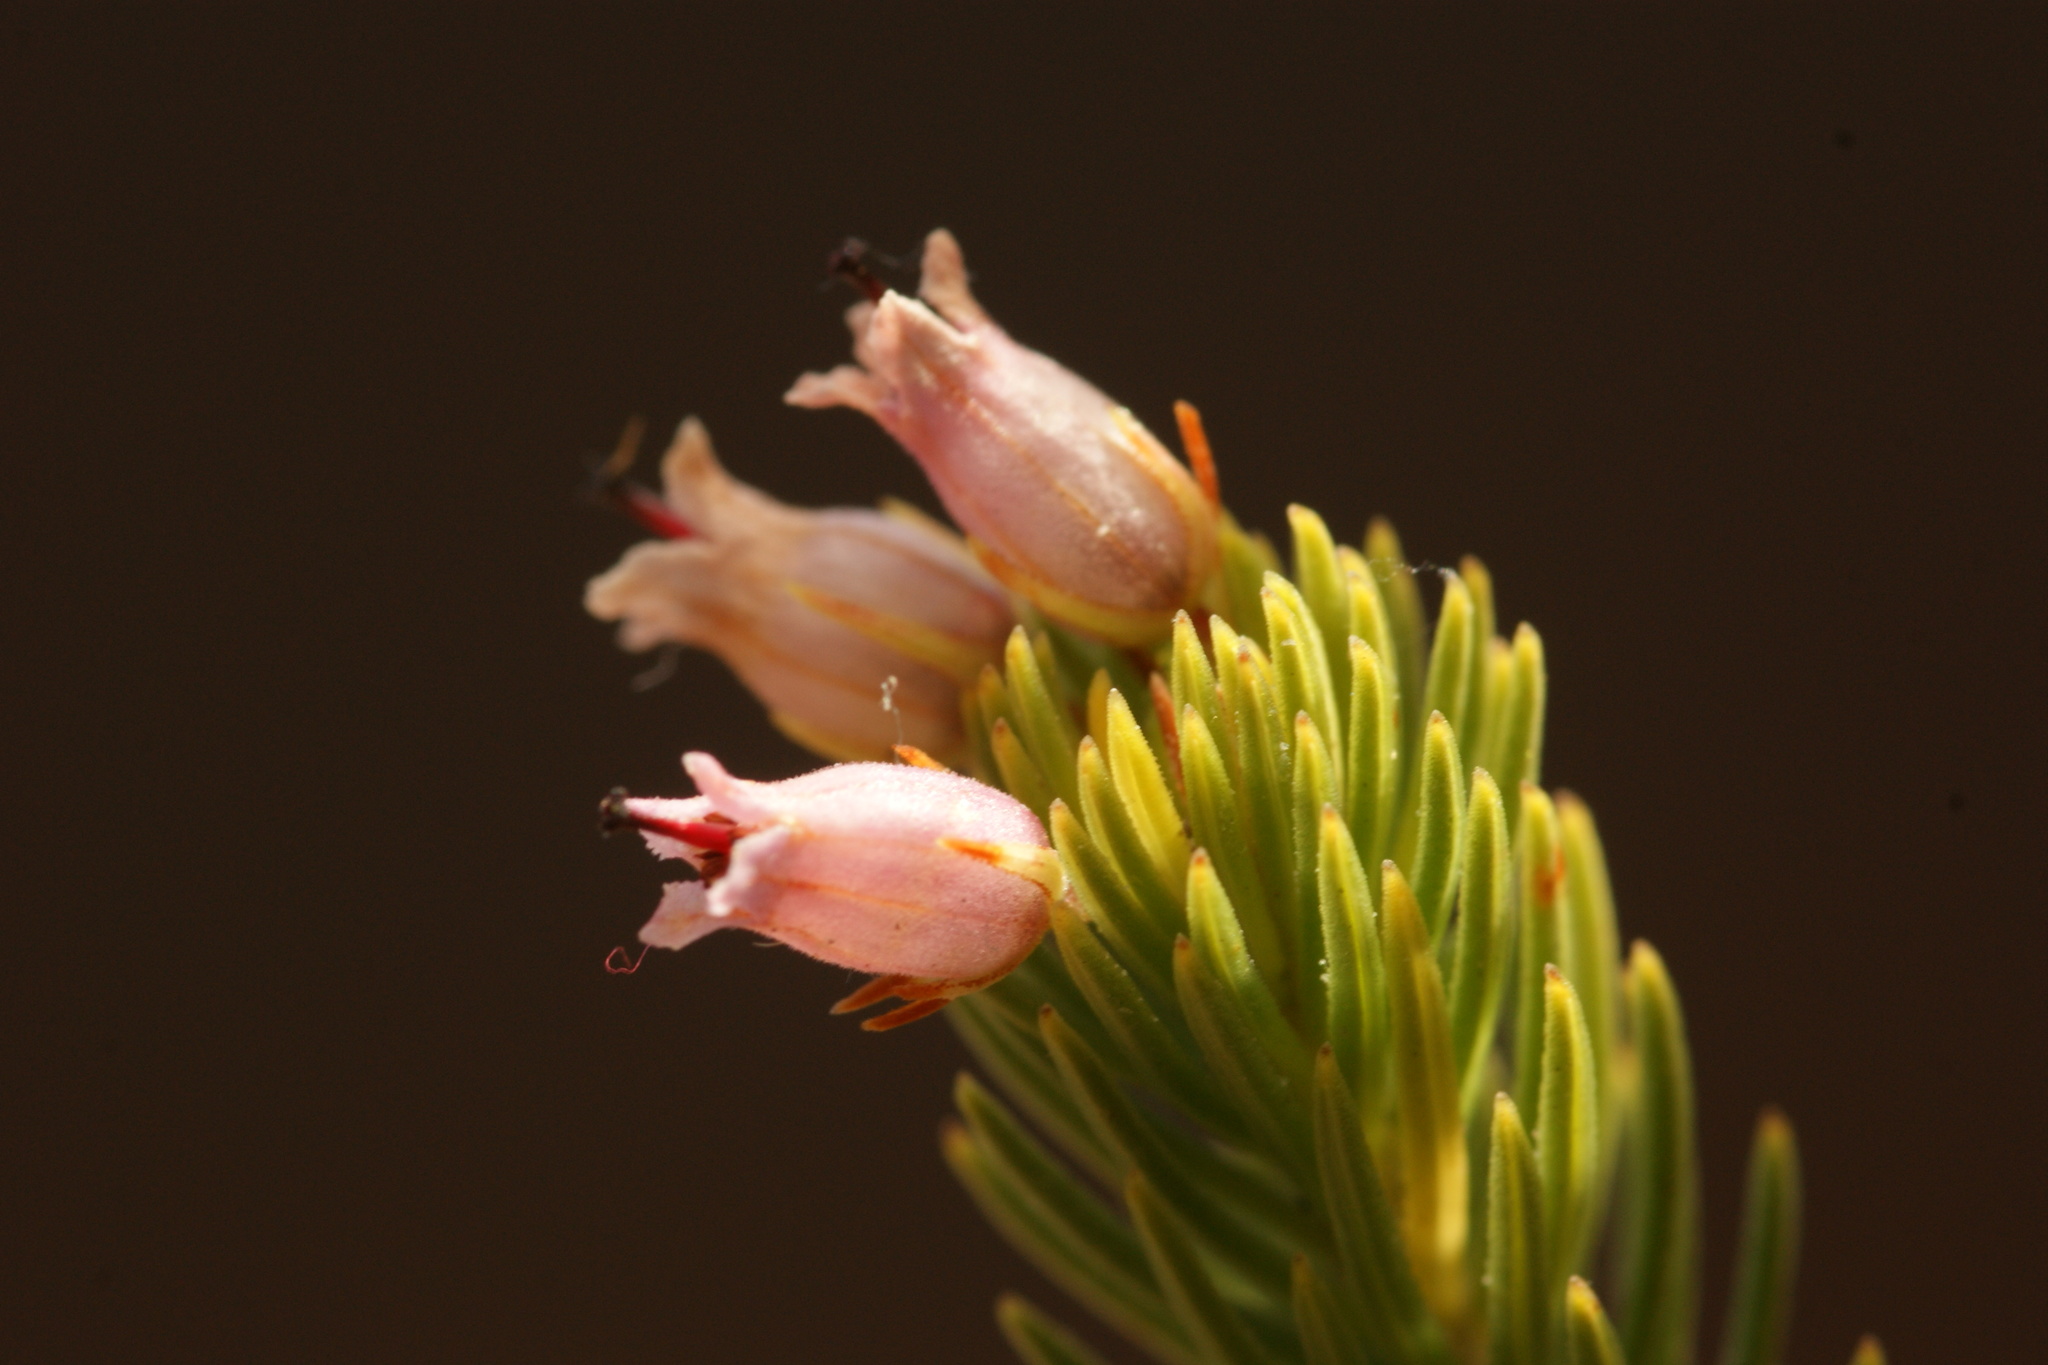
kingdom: Plantae
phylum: Tracheophyta
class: Magnoliopsida
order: Ericales
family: Ericaceae
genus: Erica
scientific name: Erica phillipsii
